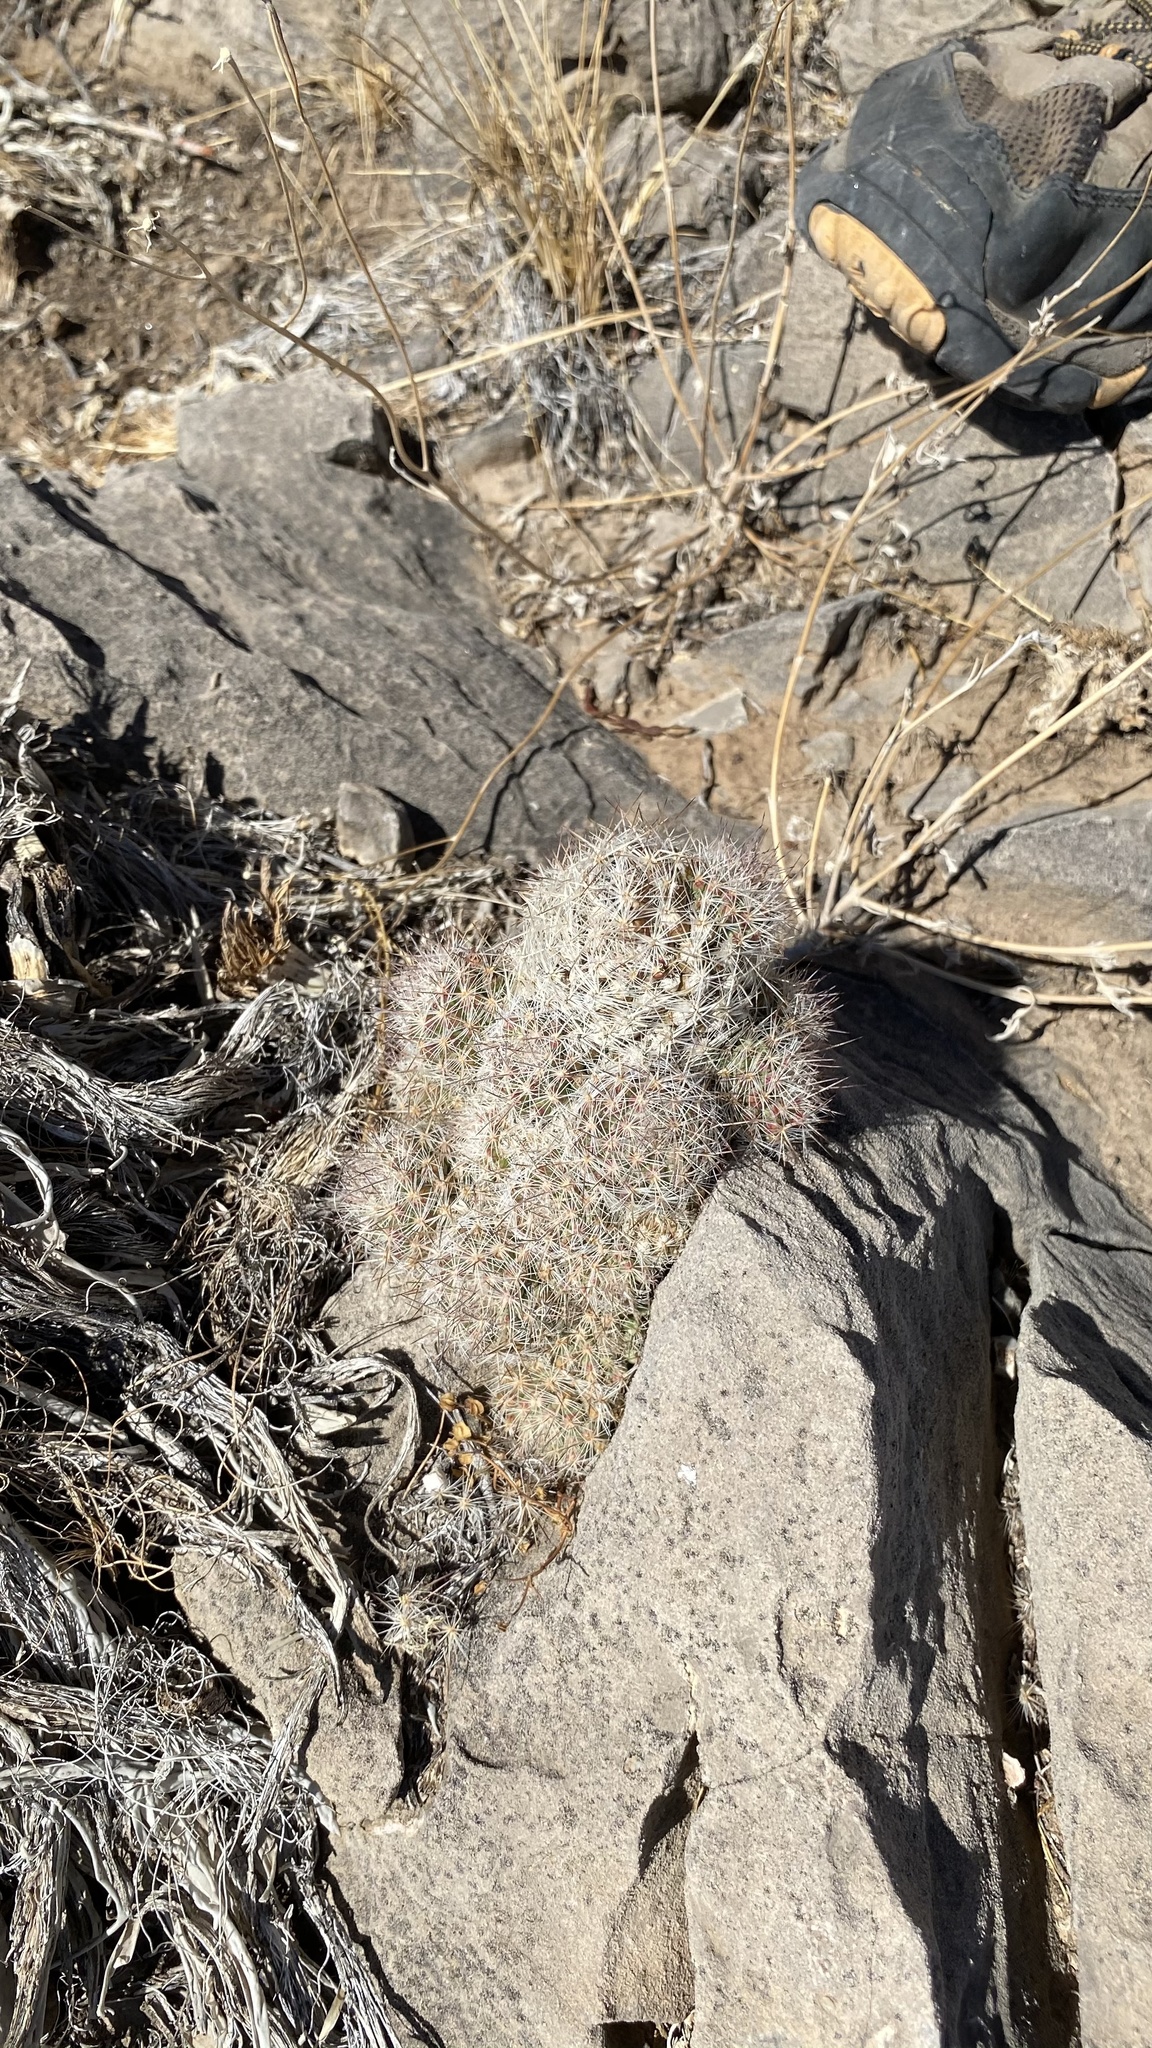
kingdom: Plantae
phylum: Tracheophyta
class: Magnoliopsida
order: Caryophyllales
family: Cactaceae
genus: Pelecyphora
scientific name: Pelecyphora tuberculosa
